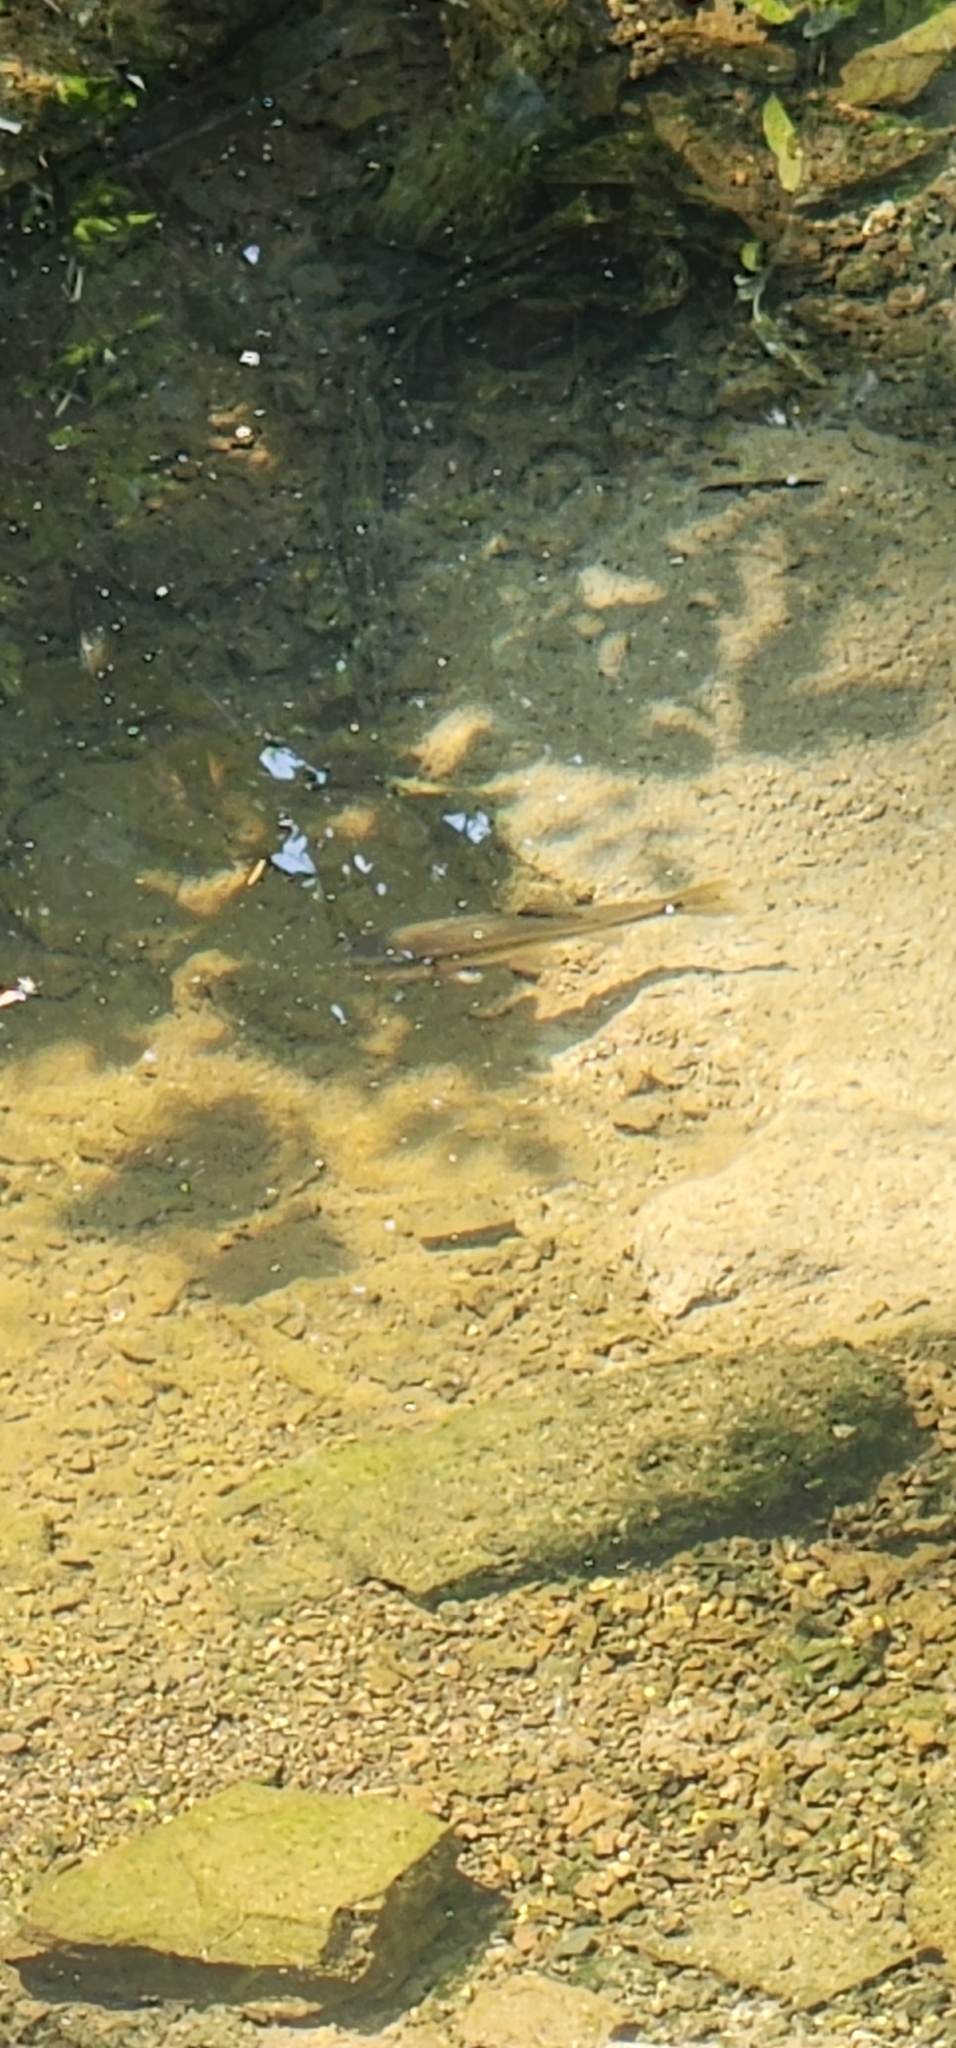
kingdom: Animalia
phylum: Chordata
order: Cypriniformes
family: Cyprinidae
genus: Semotilus
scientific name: Semotilus atromaculatus
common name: Creek chub
